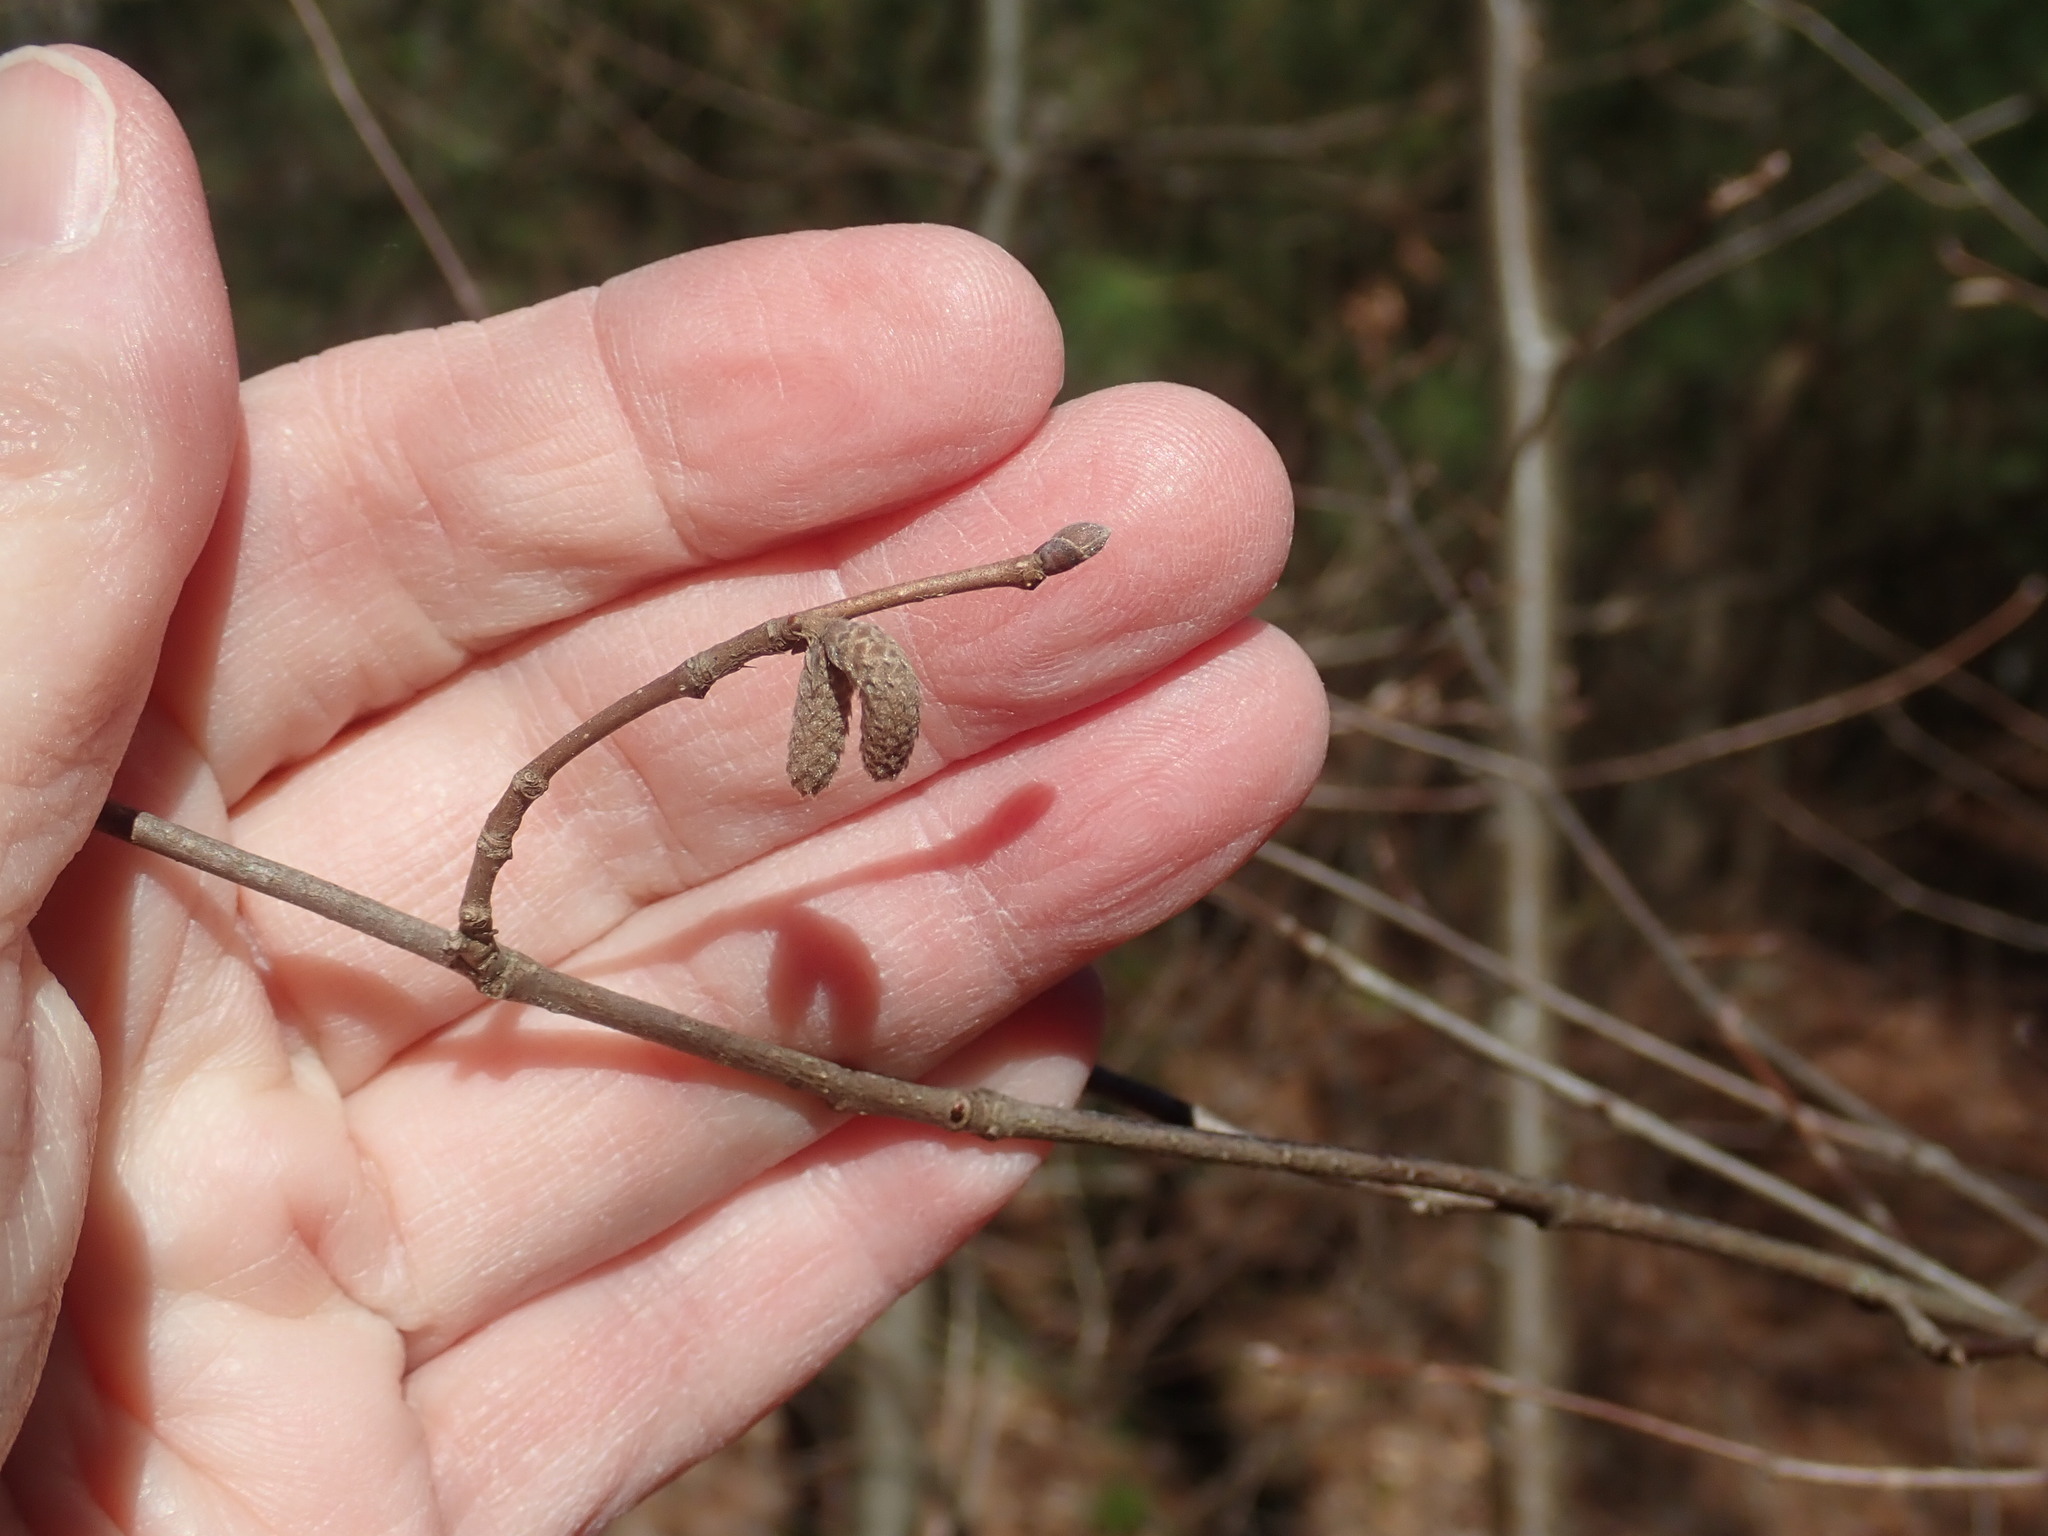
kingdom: Plantae
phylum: Tracheophyta
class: Magnoliopsida
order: Fagales
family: Betulaceae
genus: Corylus
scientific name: Corylus cornuta
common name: Beaked hazel
